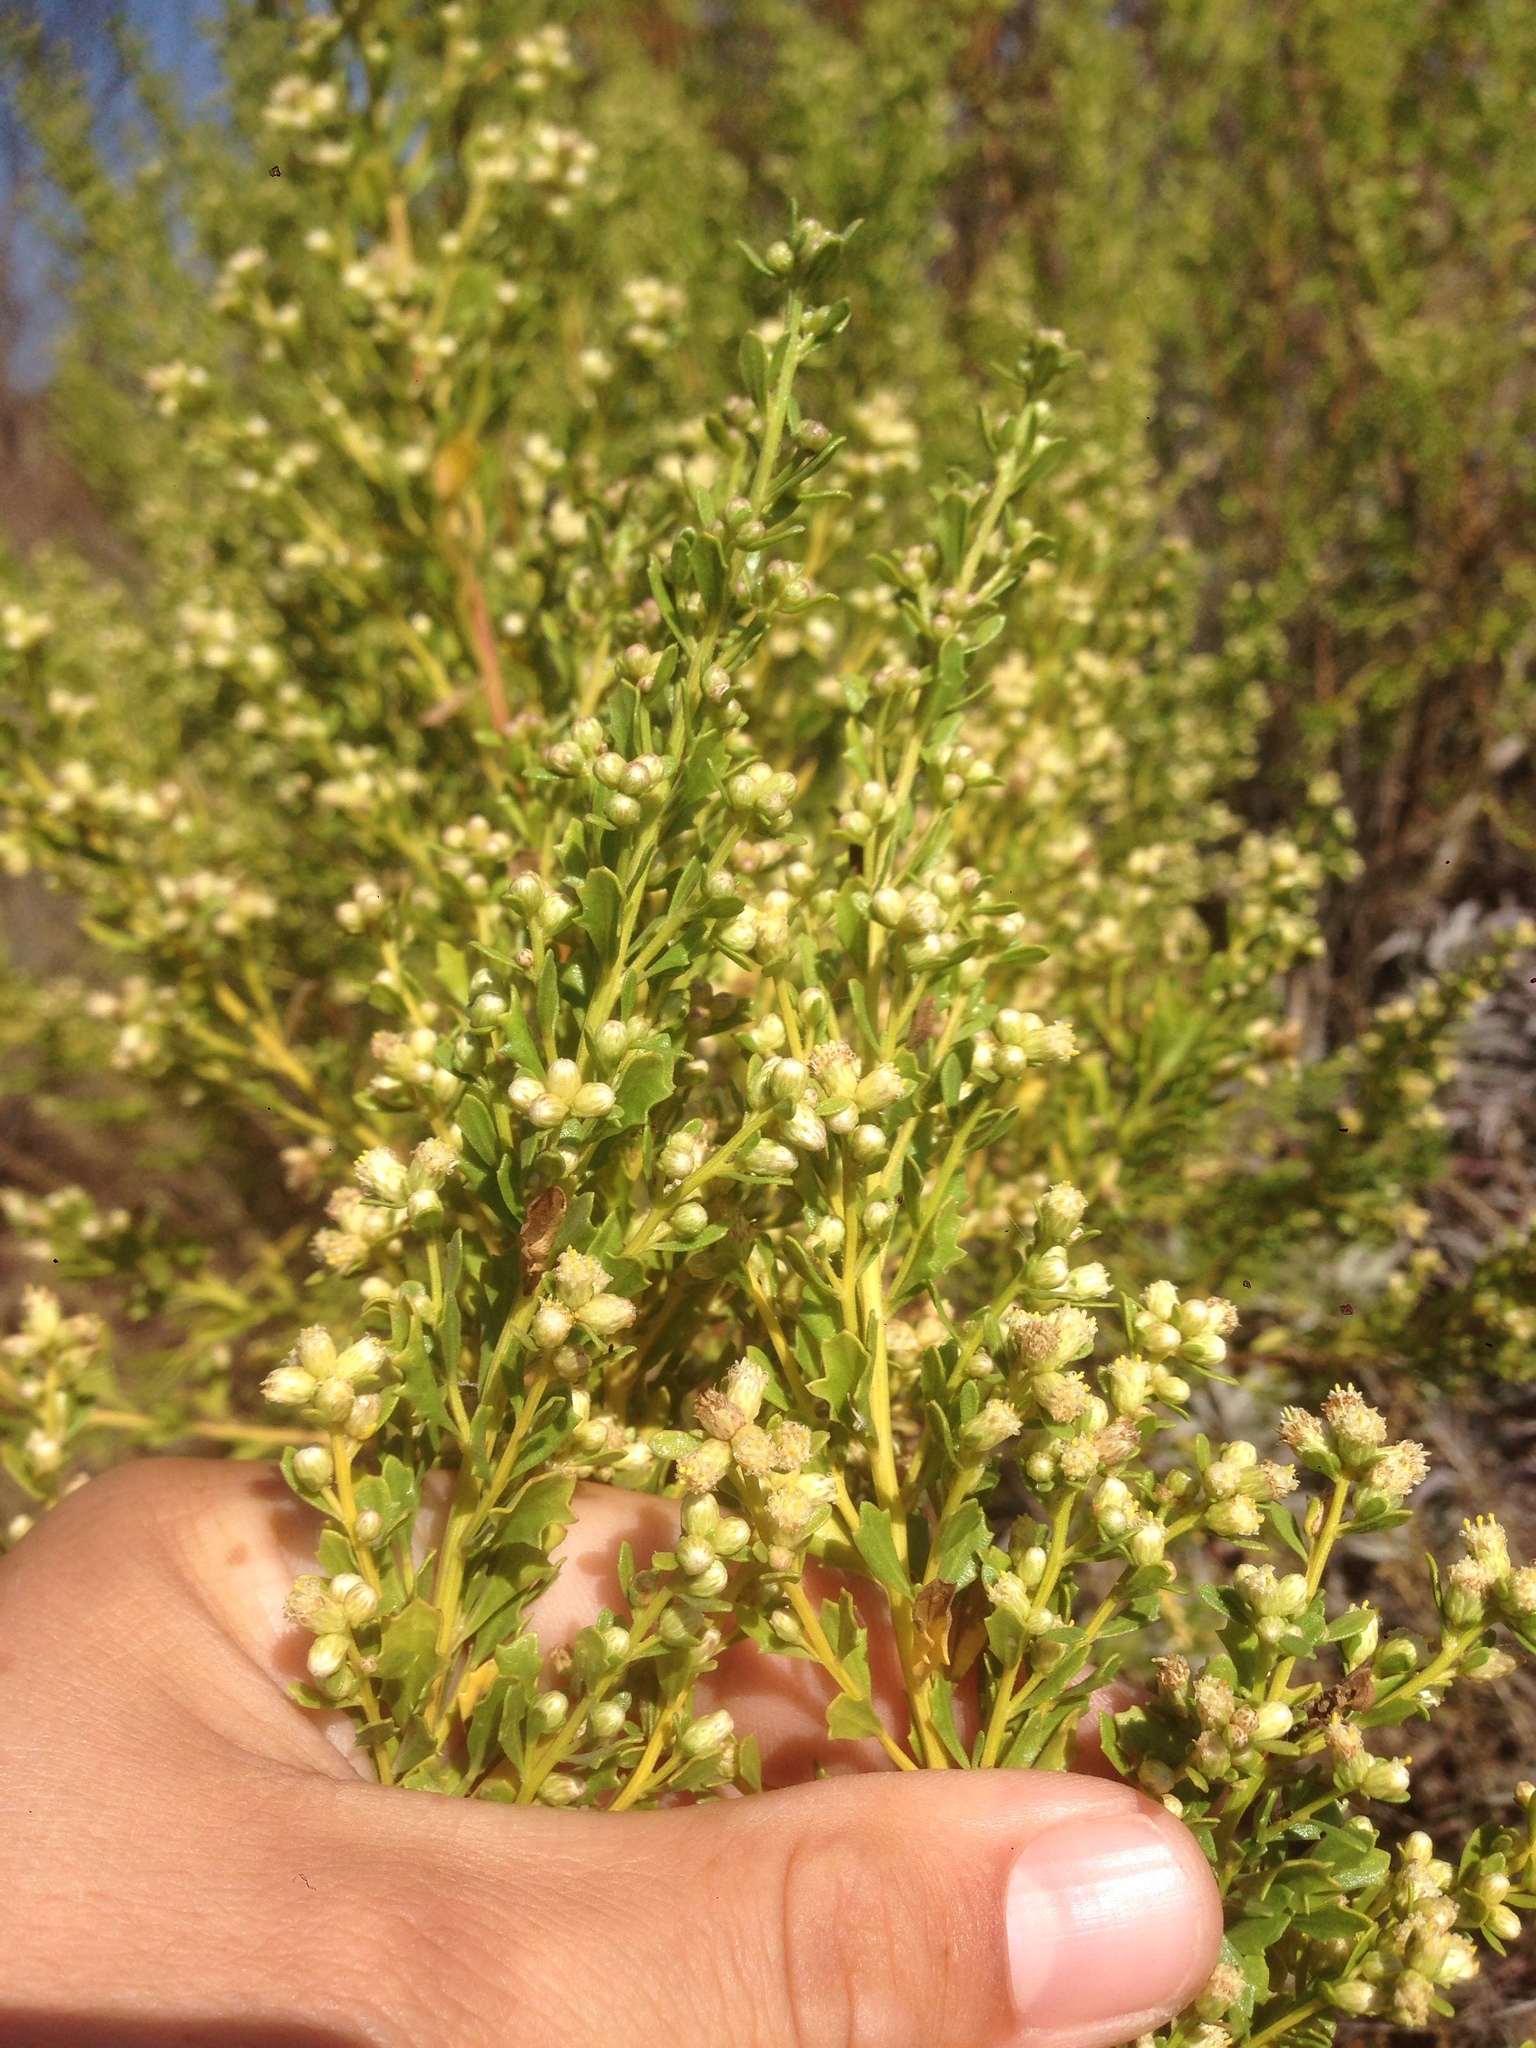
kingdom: Plantae
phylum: Tracheophyta
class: Magnoliopsida
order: Asterales
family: Asteraceae
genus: Baccharis
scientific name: Baccharis pilularis
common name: Coyotebrush
